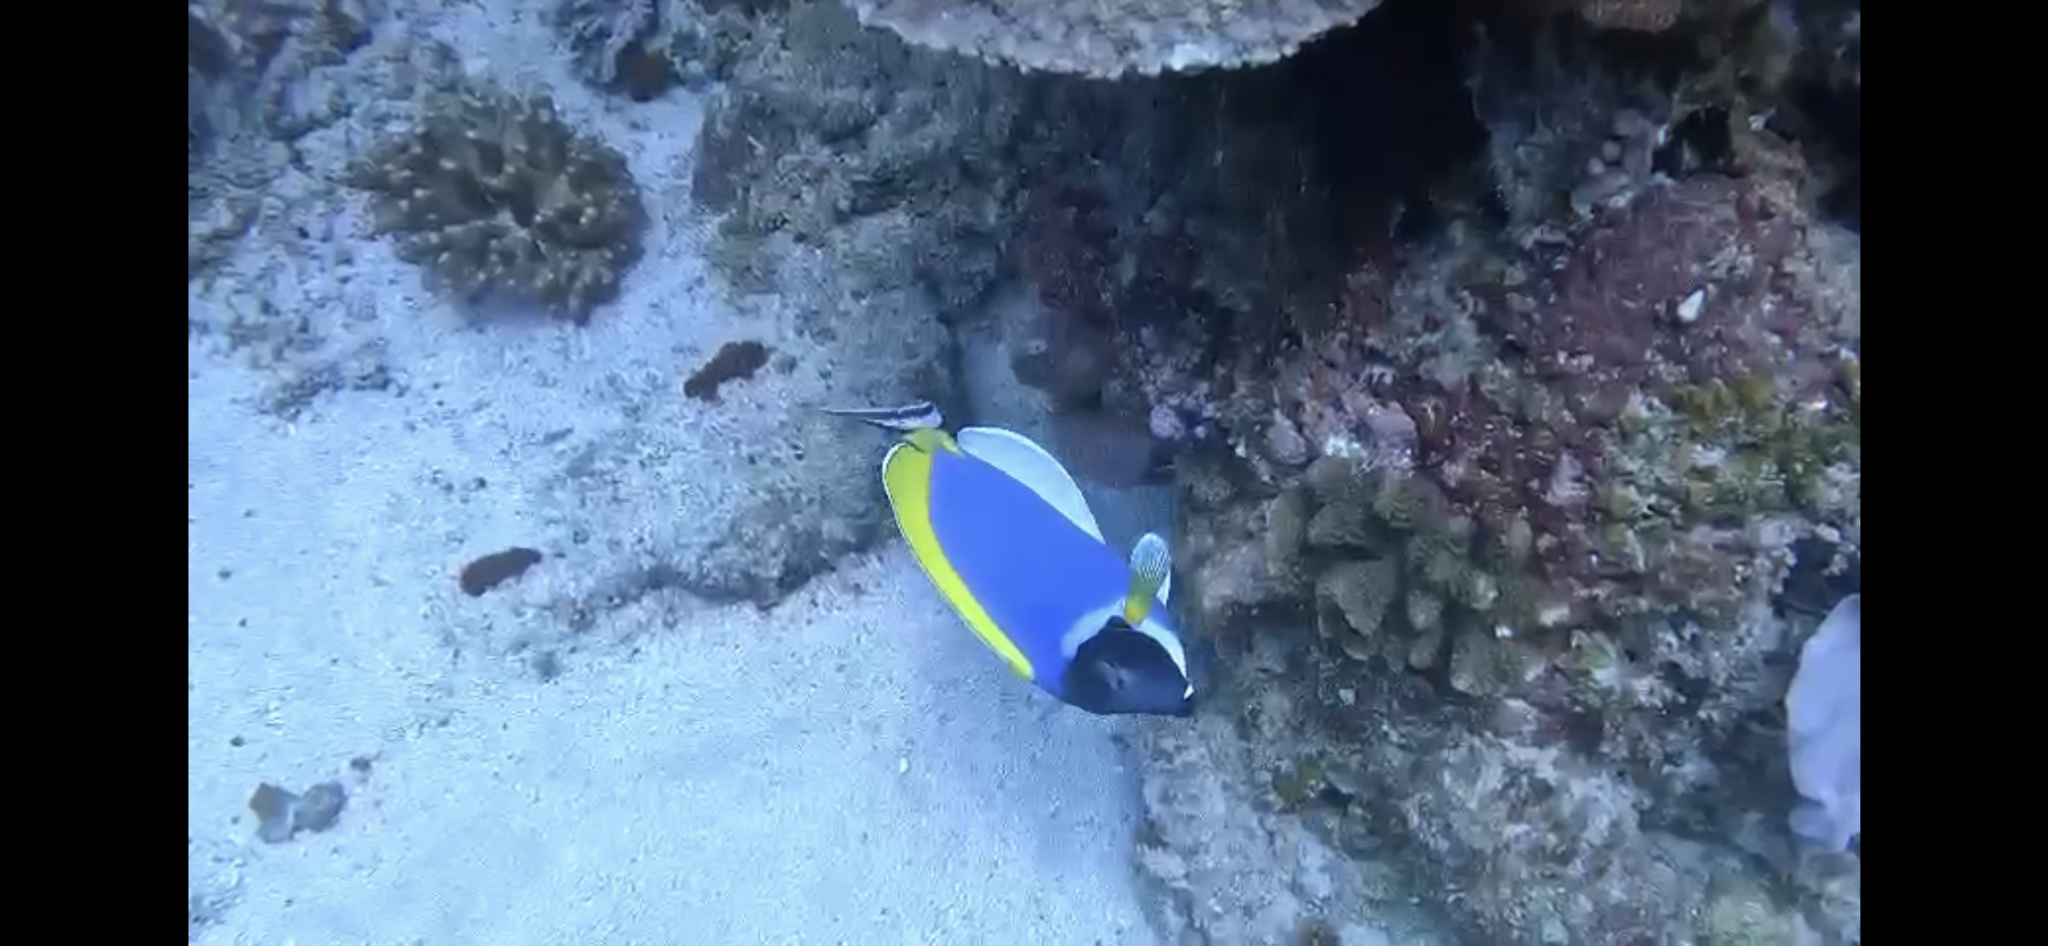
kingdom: Animalia
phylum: Chordata
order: Perciformes
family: Acanthuridae
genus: Acanthurus
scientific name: Acanthurus leucosternon
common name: Blue surgeonfish
